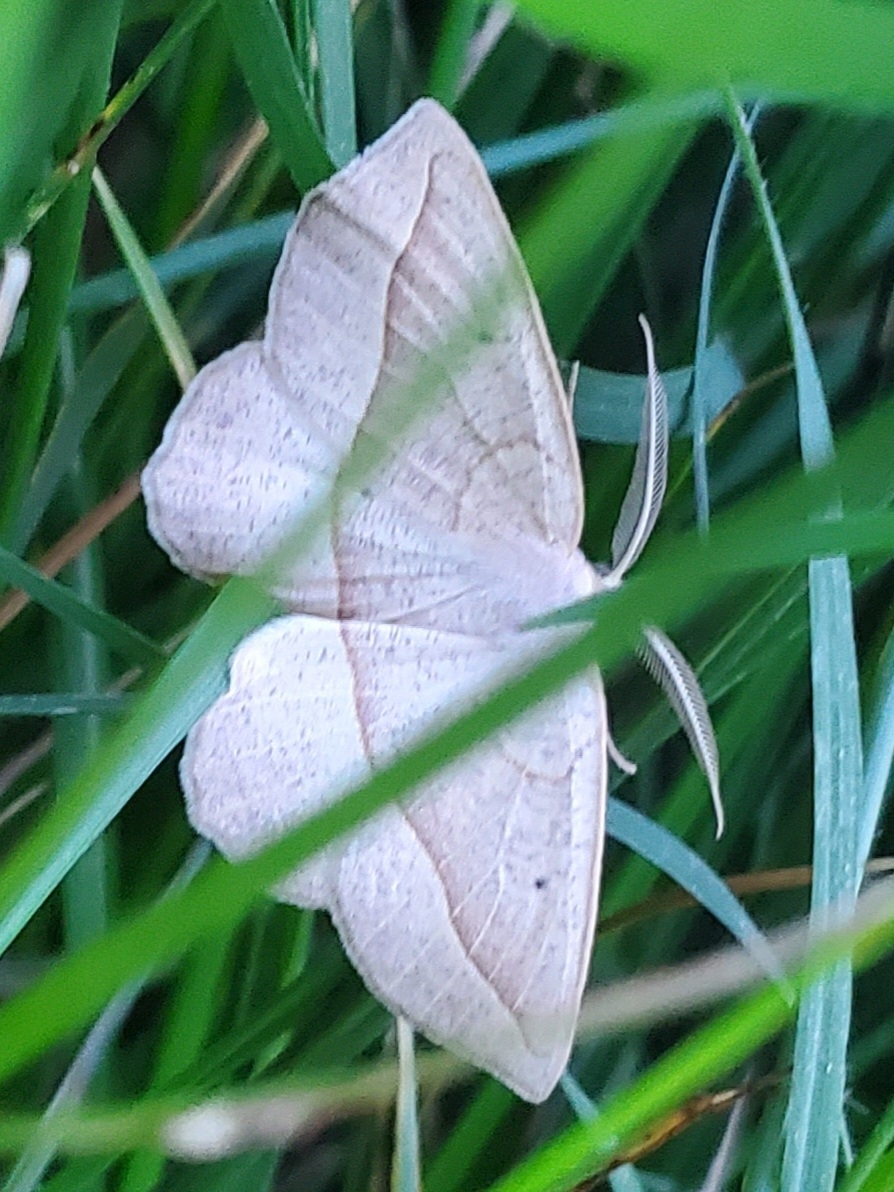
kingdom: Animalia
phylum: Arthropoda
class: Insecta
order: Lepidoptera
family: Geometridae
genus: Eusarca
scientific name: Eusarca confusaria
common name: Confused eusarca
